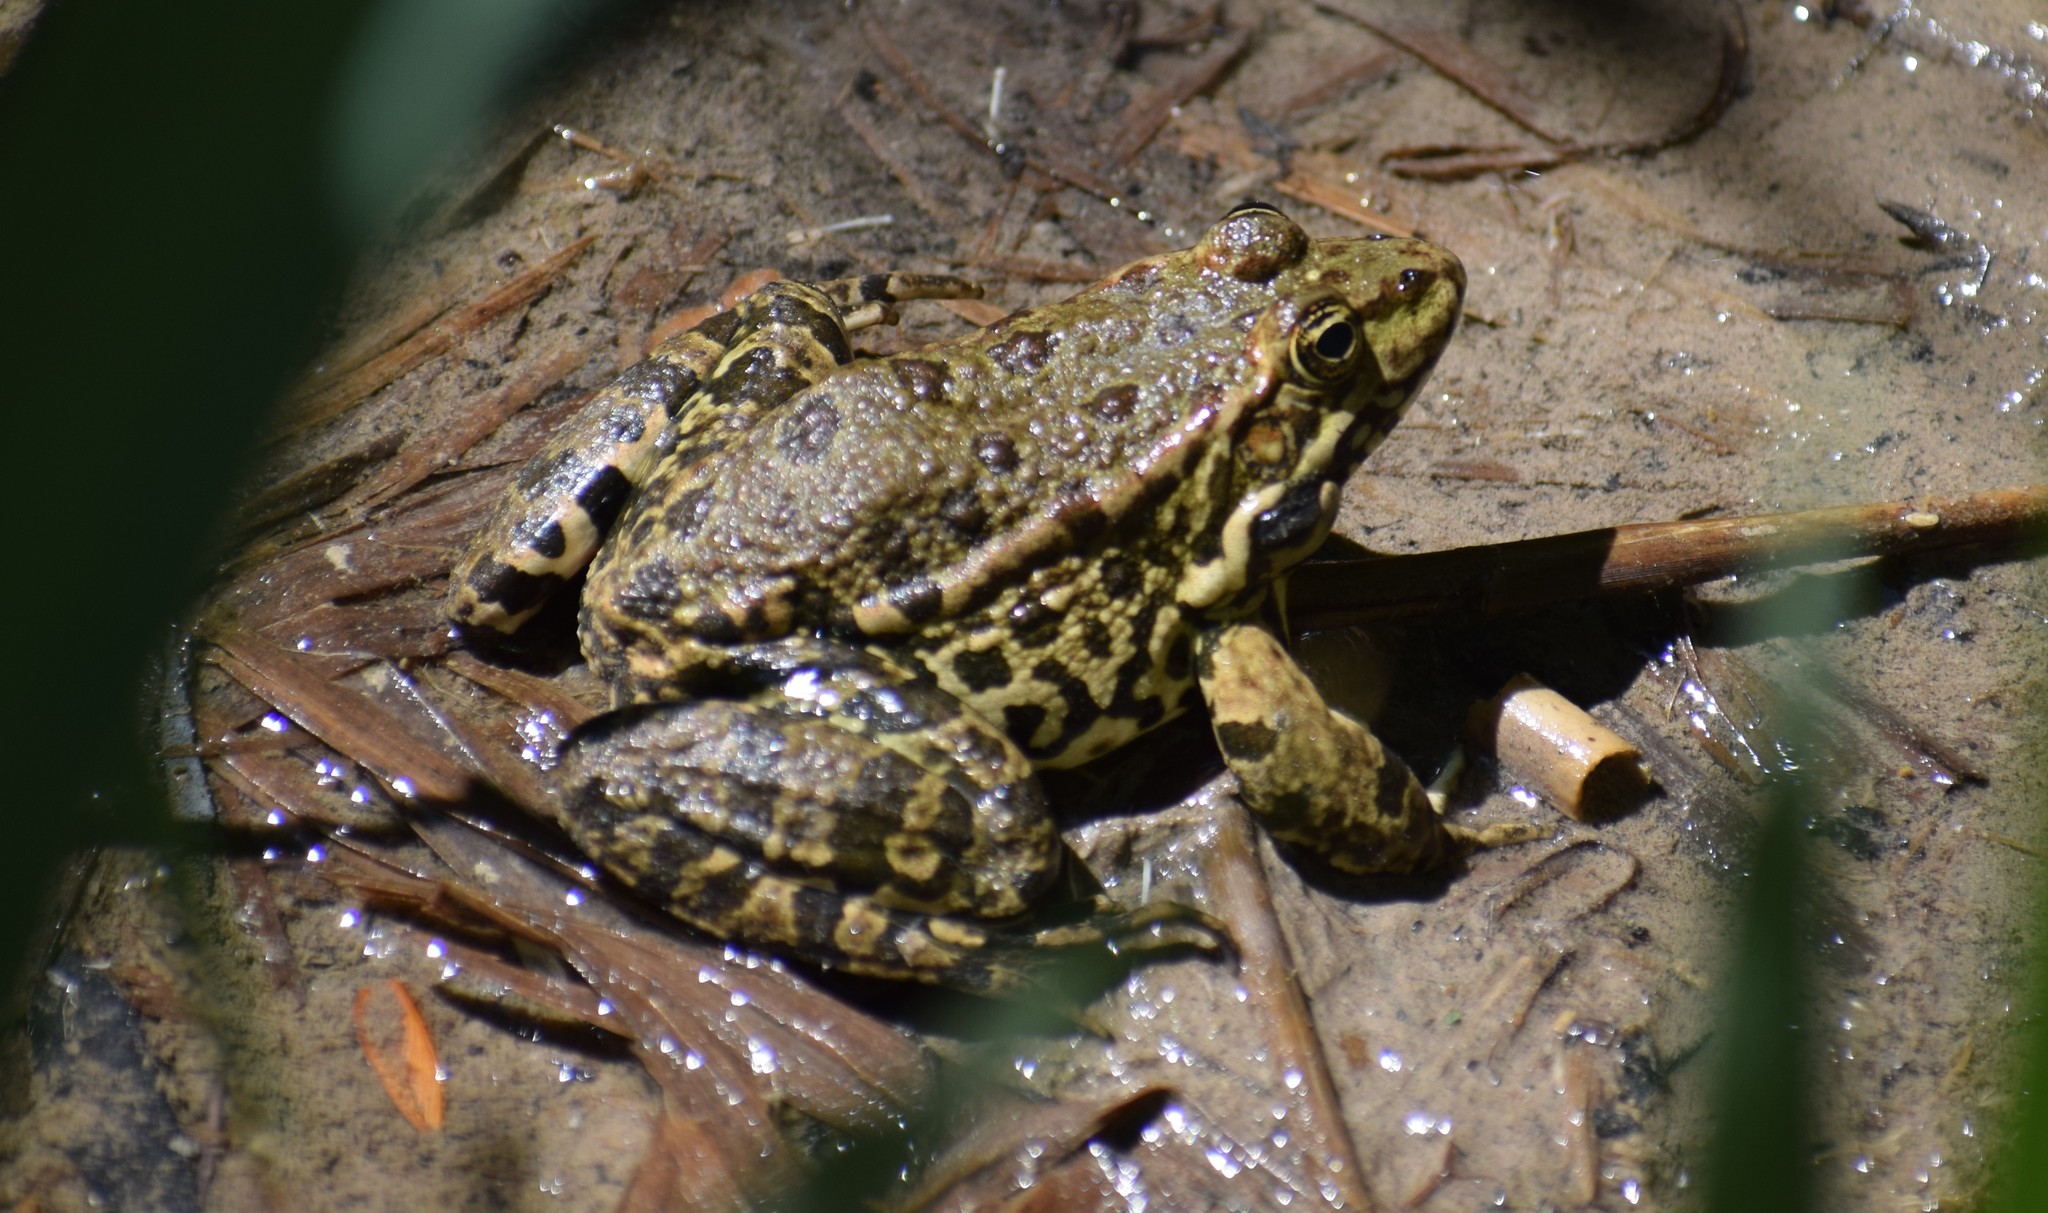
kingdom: Animalia
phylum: Chordata
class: Amphibia
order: Anura
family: Ranidae
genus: Pelophylax
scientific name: Pelophylax
